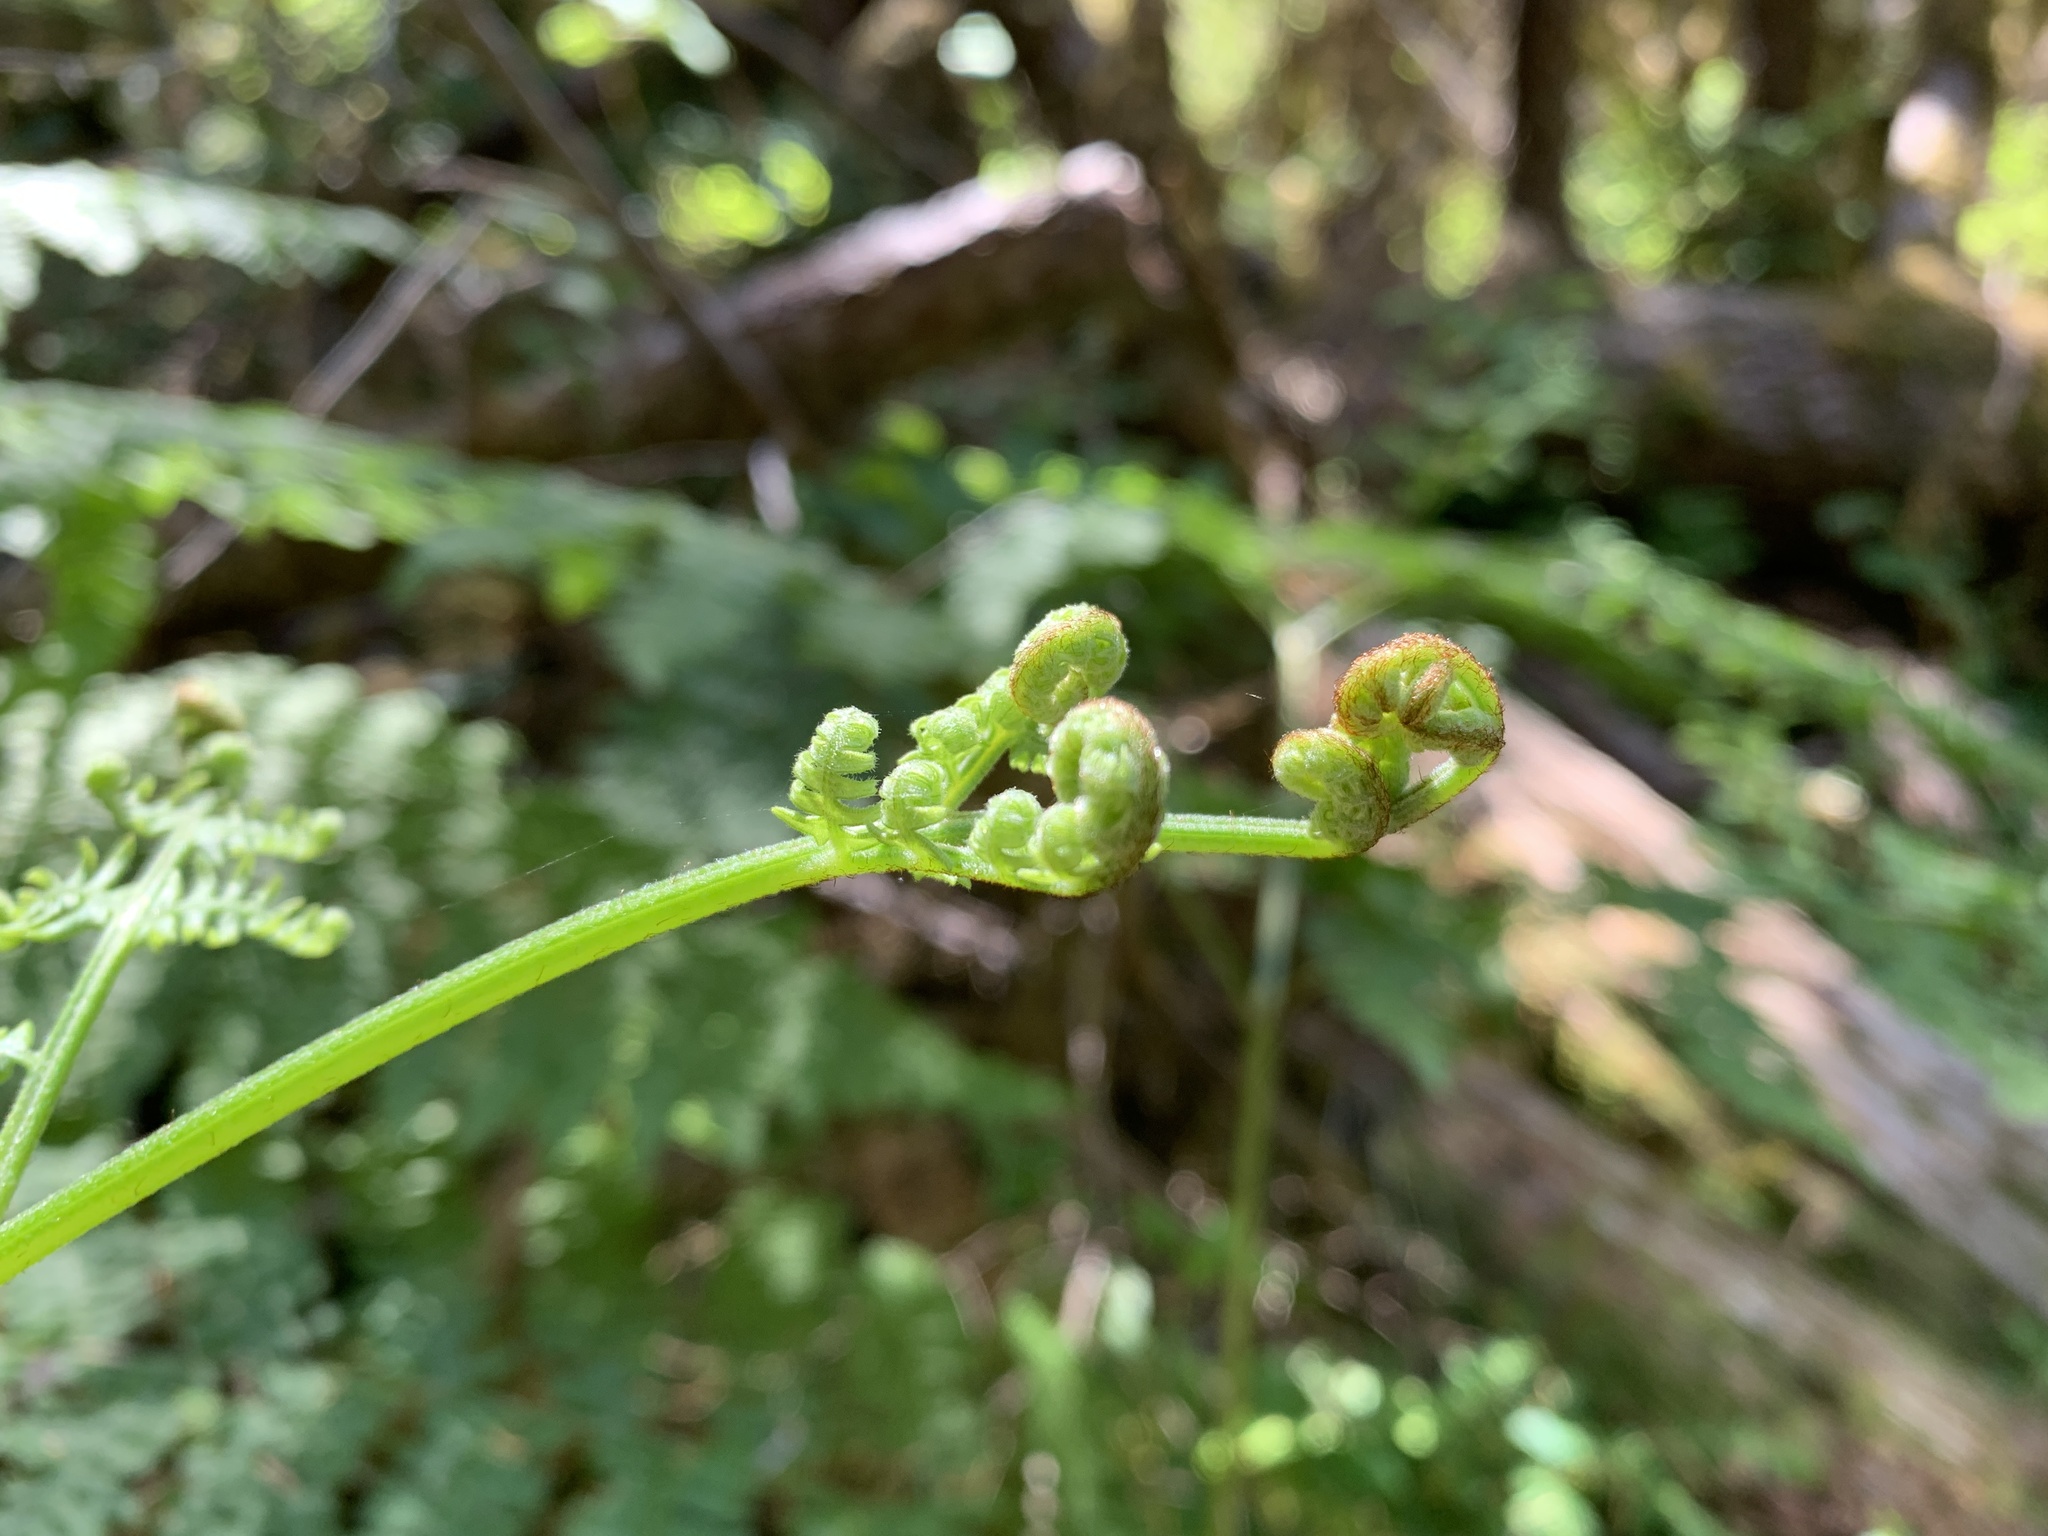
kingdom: Plantae
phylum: Tracheophyta
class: Polypodiopsida
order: Polypodiales
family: Dennstaedtiaceae
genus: Pteridium
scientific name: Pteridium aquilinum
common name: Bracken
